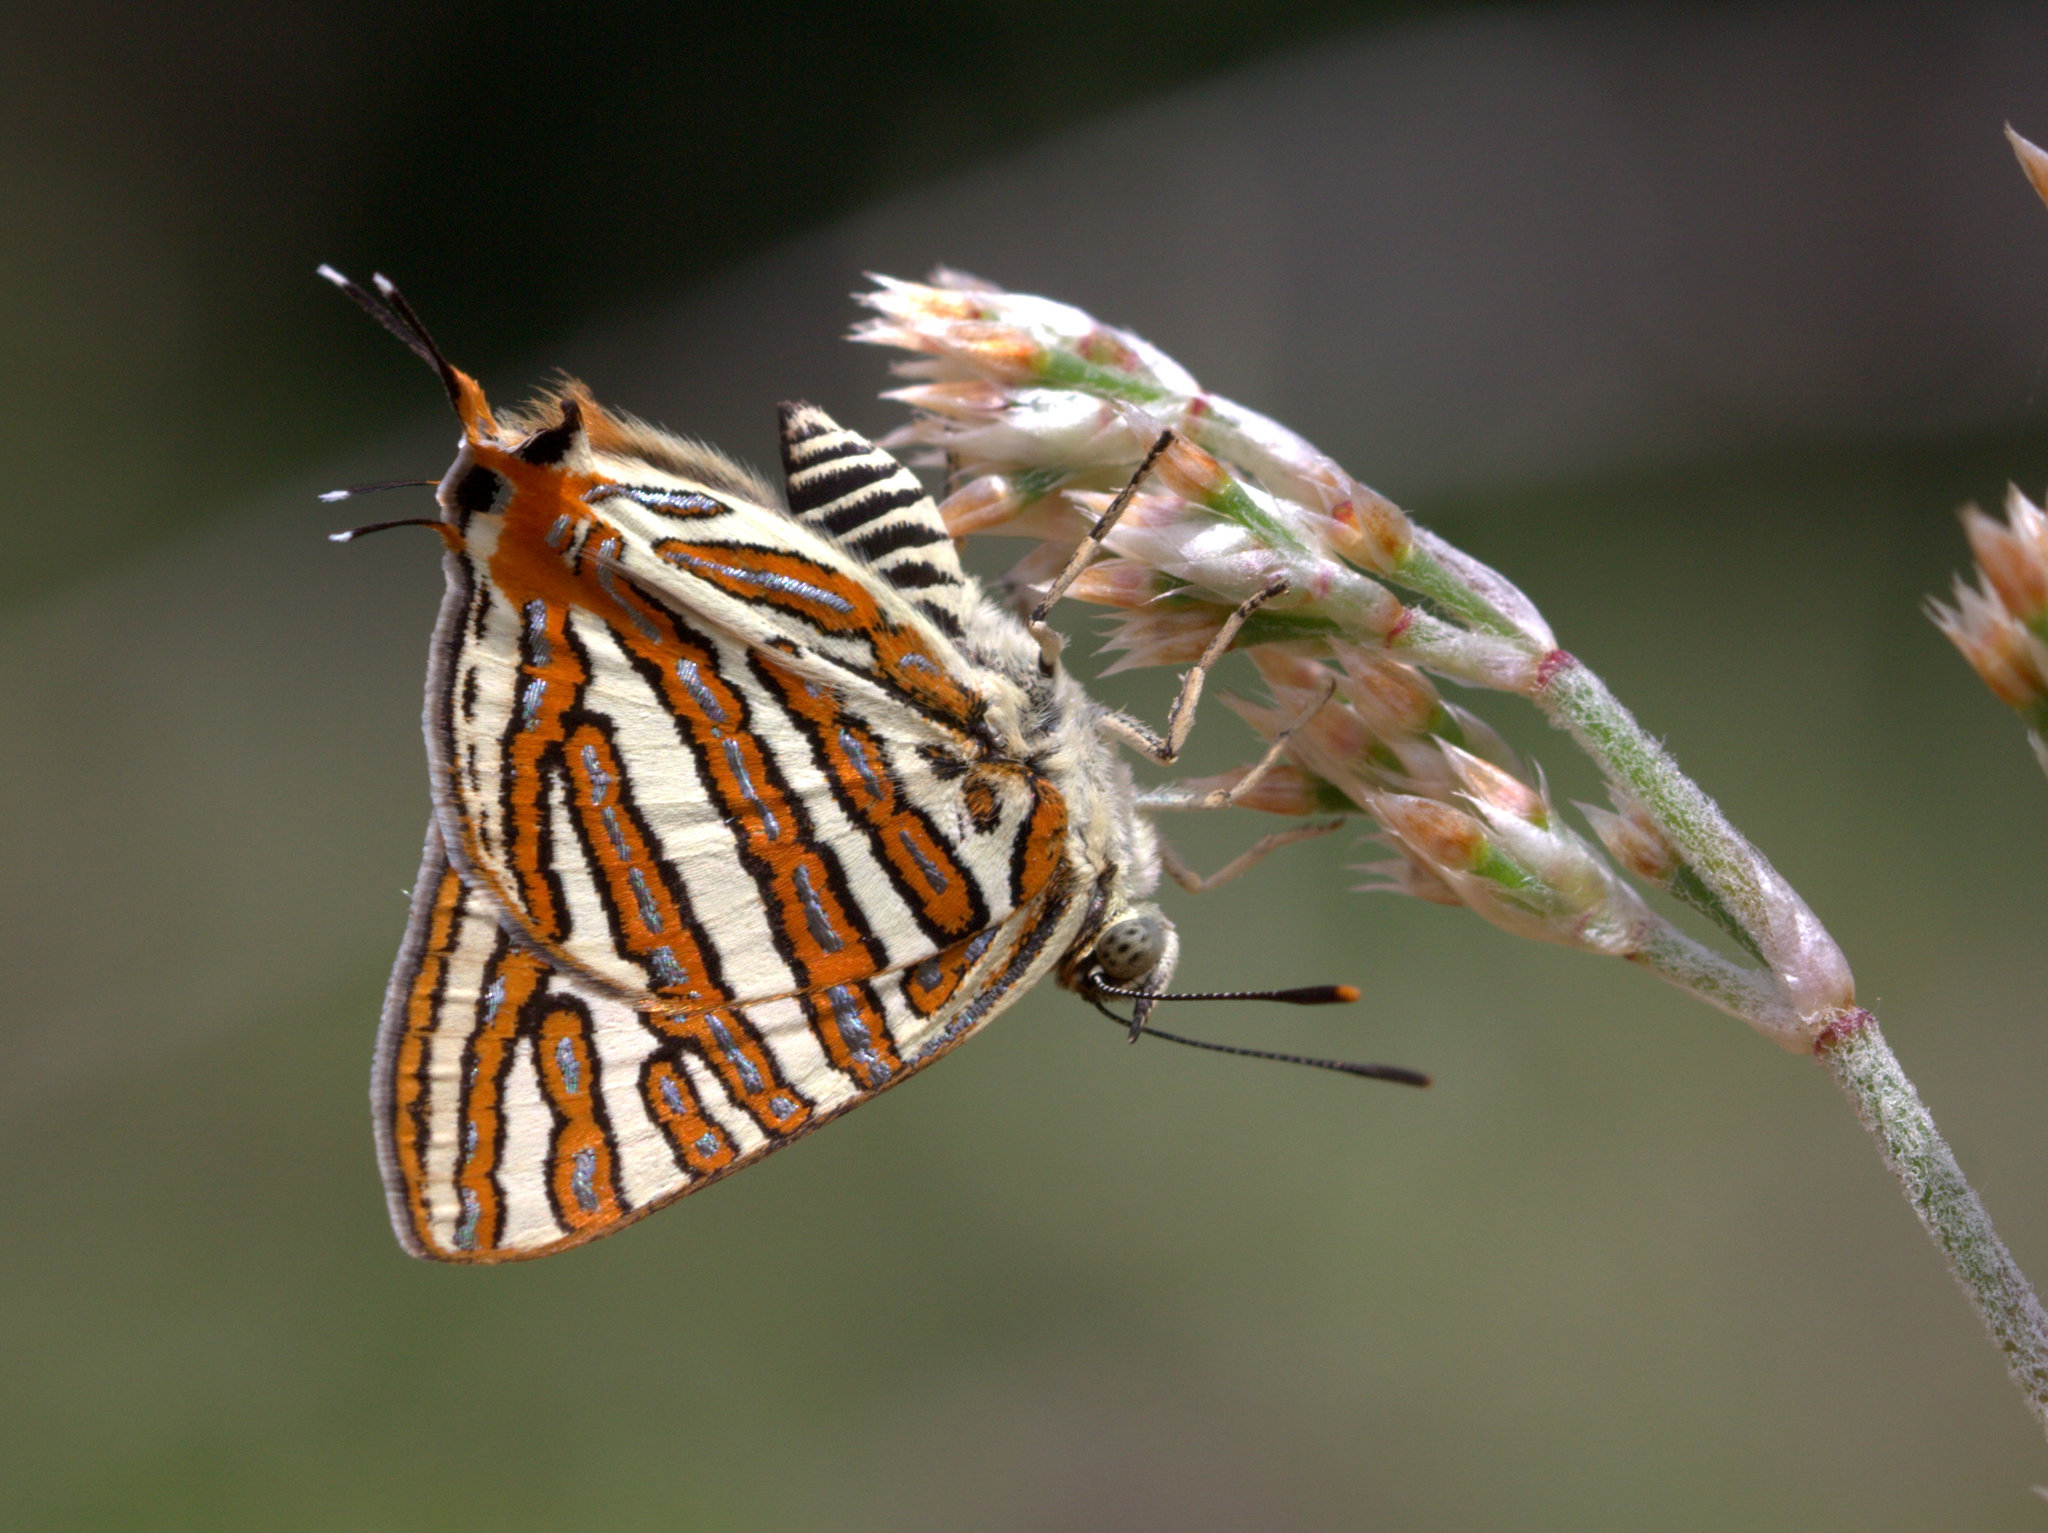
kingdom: Animalia
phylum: Arthropoda
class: Insecta
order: Lepidoptera
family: Lycaenidae
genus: Cigaritis
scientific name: Cigaritis vulcanus
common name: Common silverline
